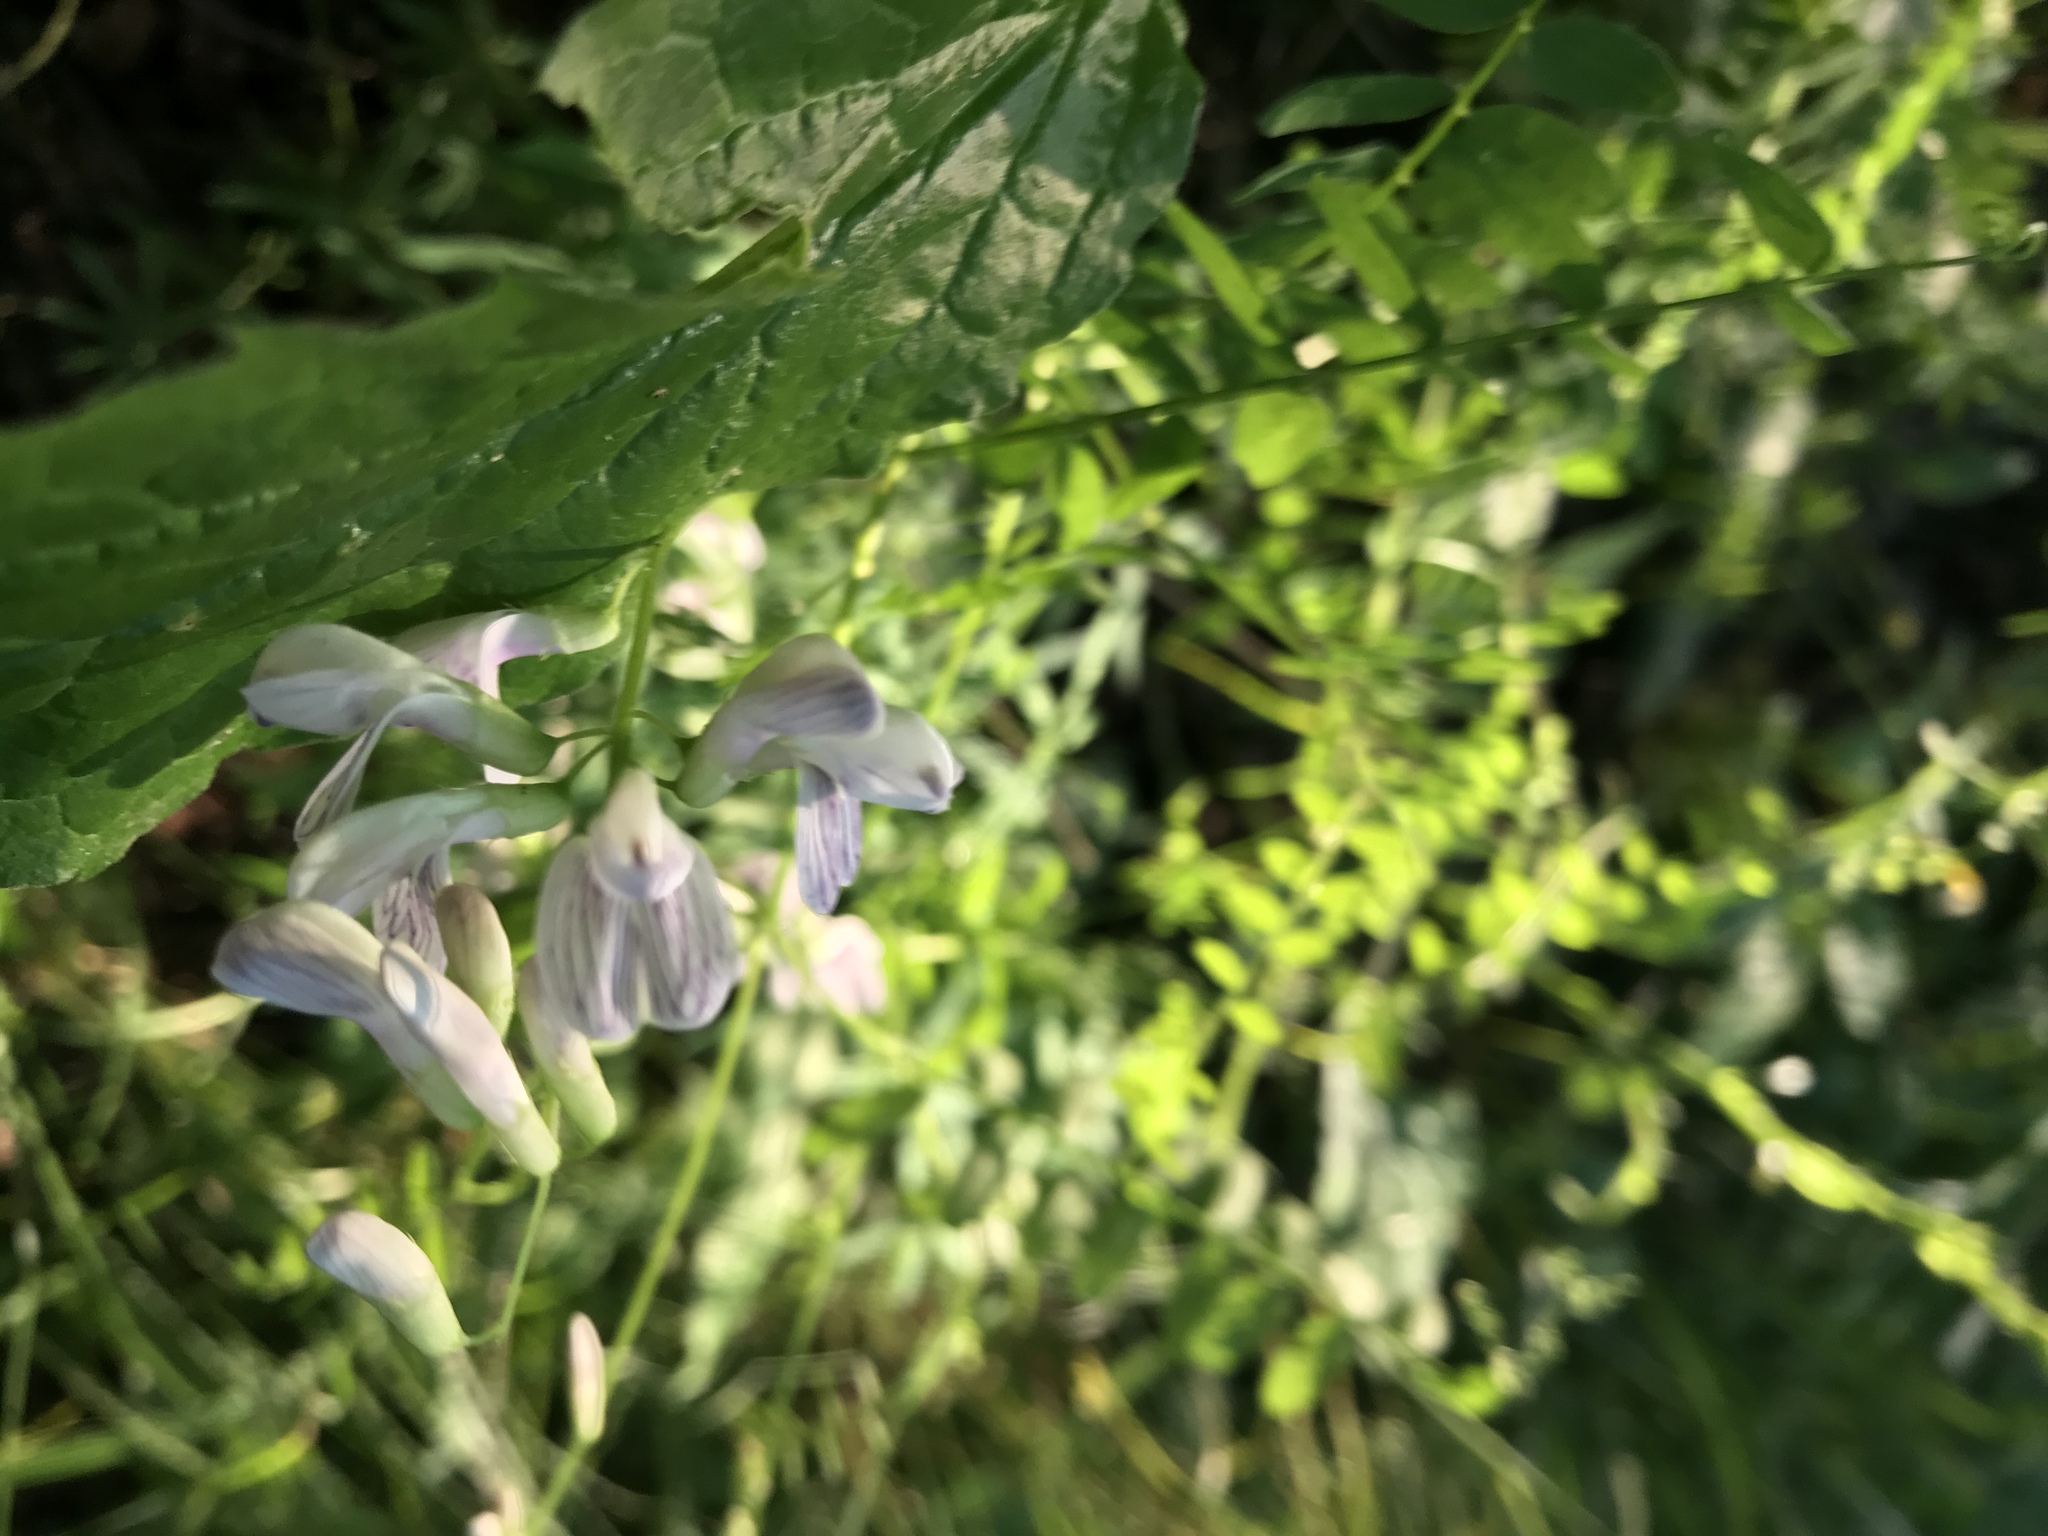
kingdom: Plantae
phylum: Tracheophyta
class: Magnoliopsida
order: Fabales
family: Fabaceae
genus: Vicia
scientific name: Vicia sylvatica
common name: Wood vetch
